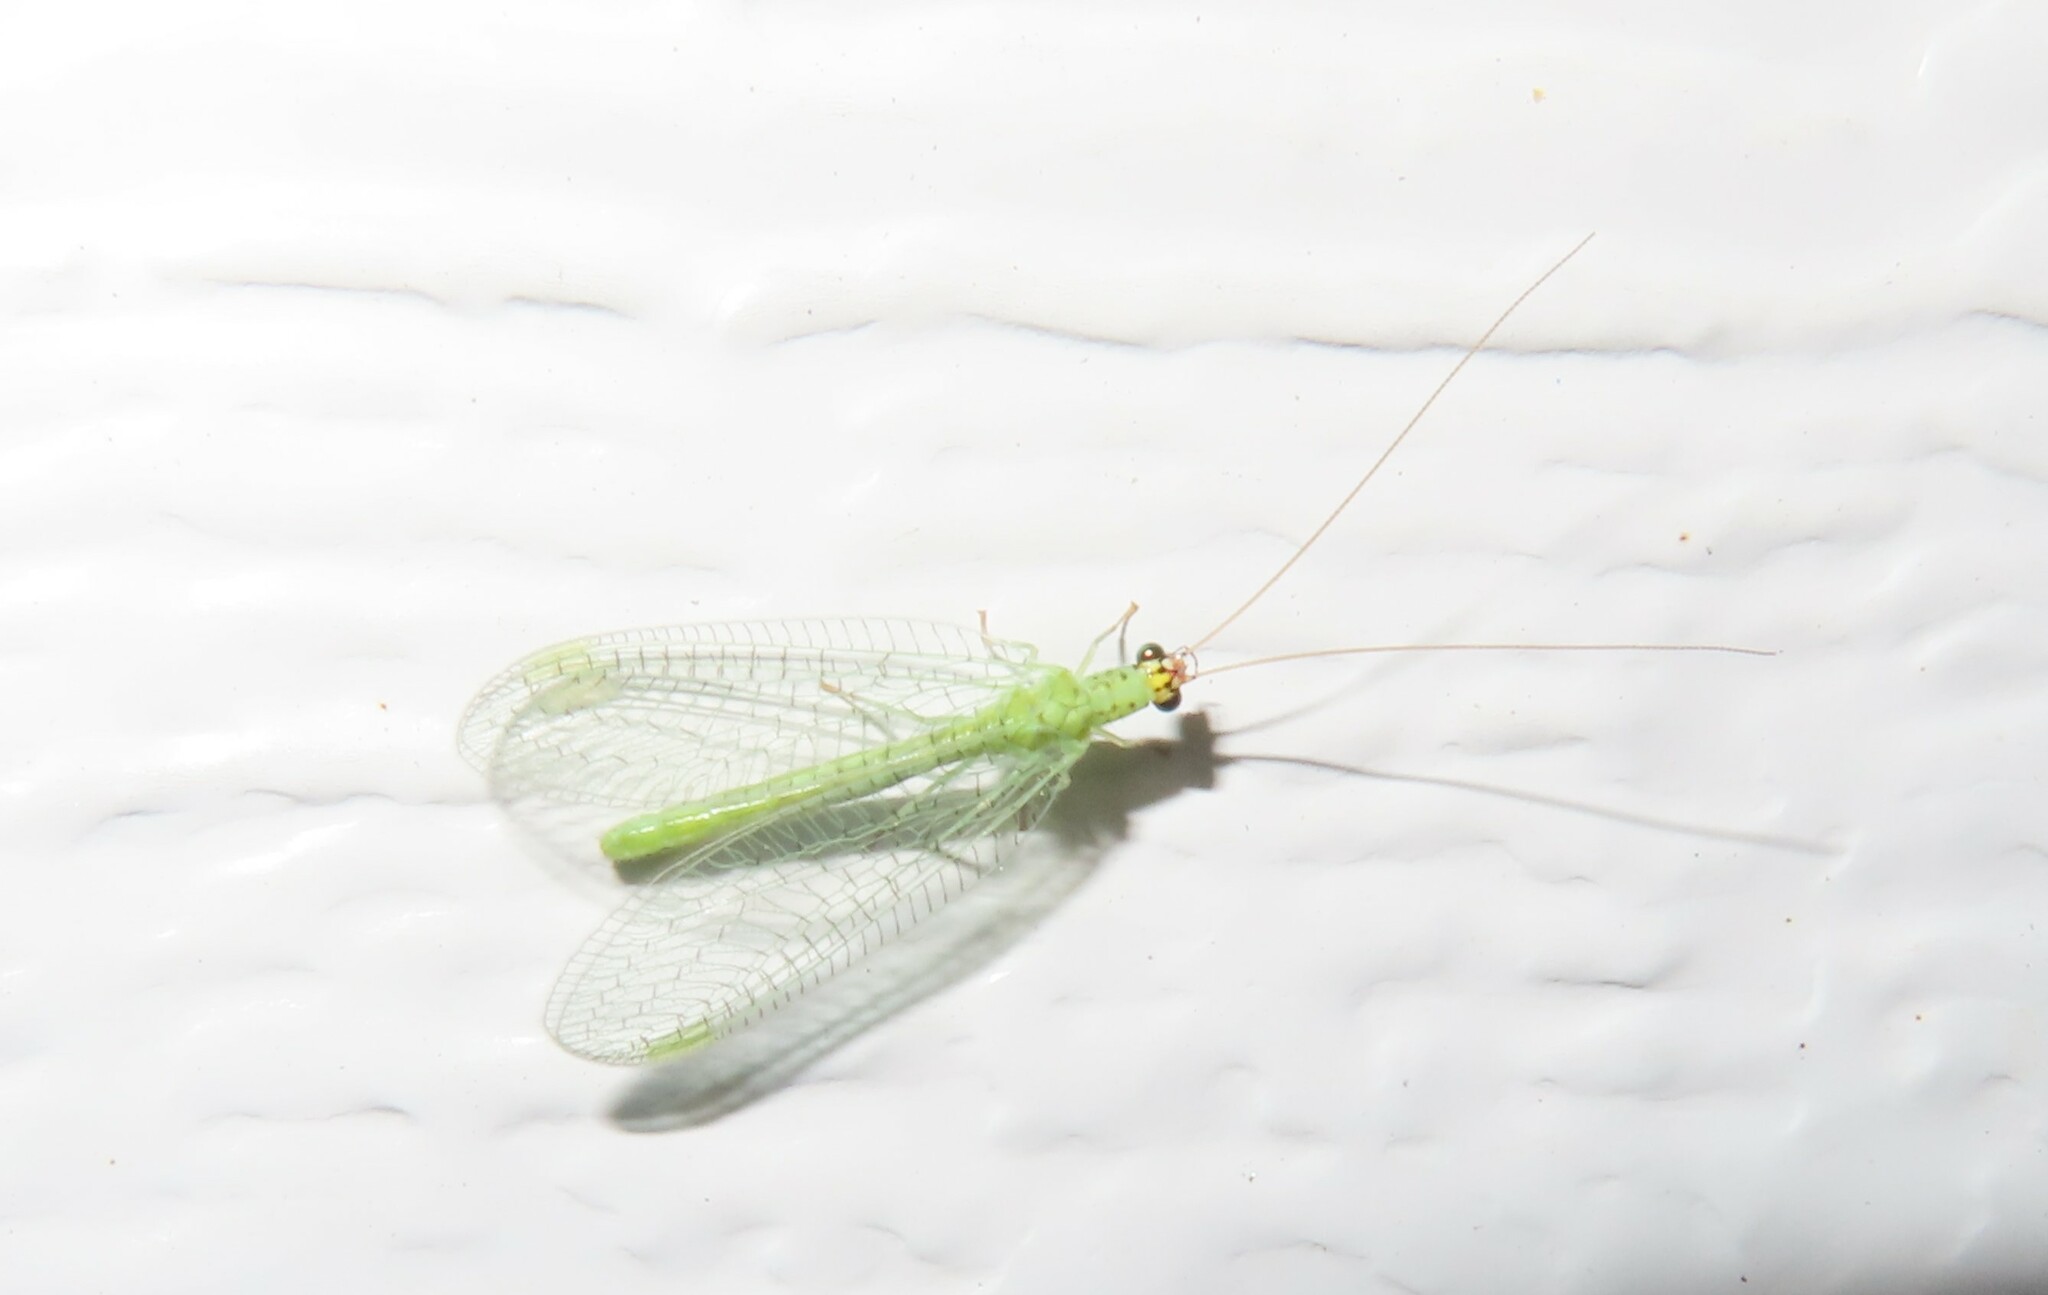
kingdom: Animalia
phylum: Arthropoda
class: Insecta
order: Neuroptera
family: Chrysopidae
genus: Chrysopa
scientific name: Chrysopa oculata
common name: Golden-eyed lacewing
